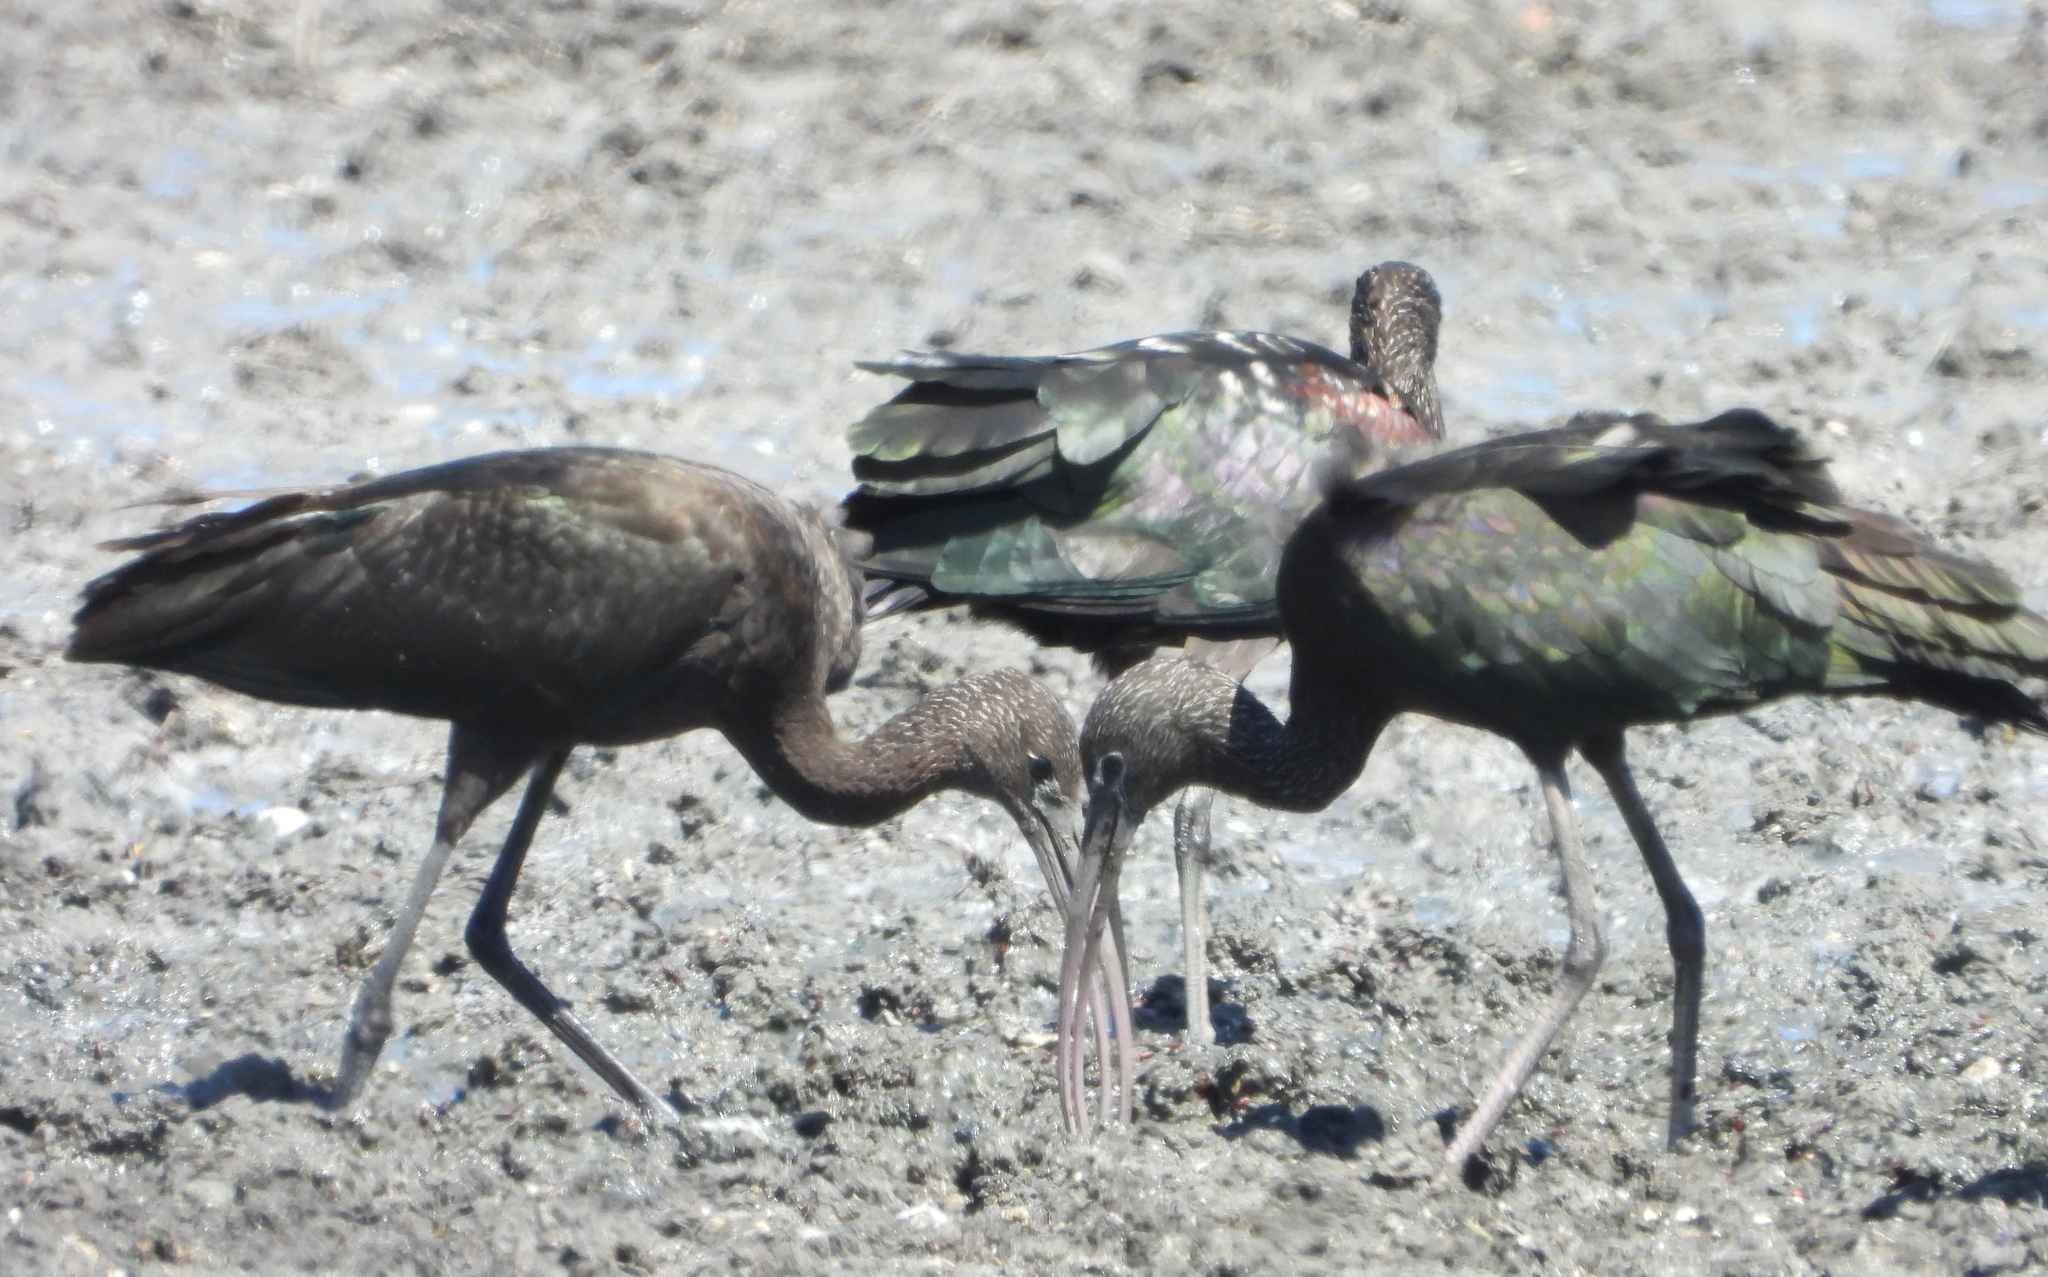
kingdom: Animalia
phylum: Chordata
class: Aves
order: Pelecaniformes
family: Threskiornithidae
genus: Plegadis
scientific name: Plegadis falcinellus
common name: Glossy ibis
